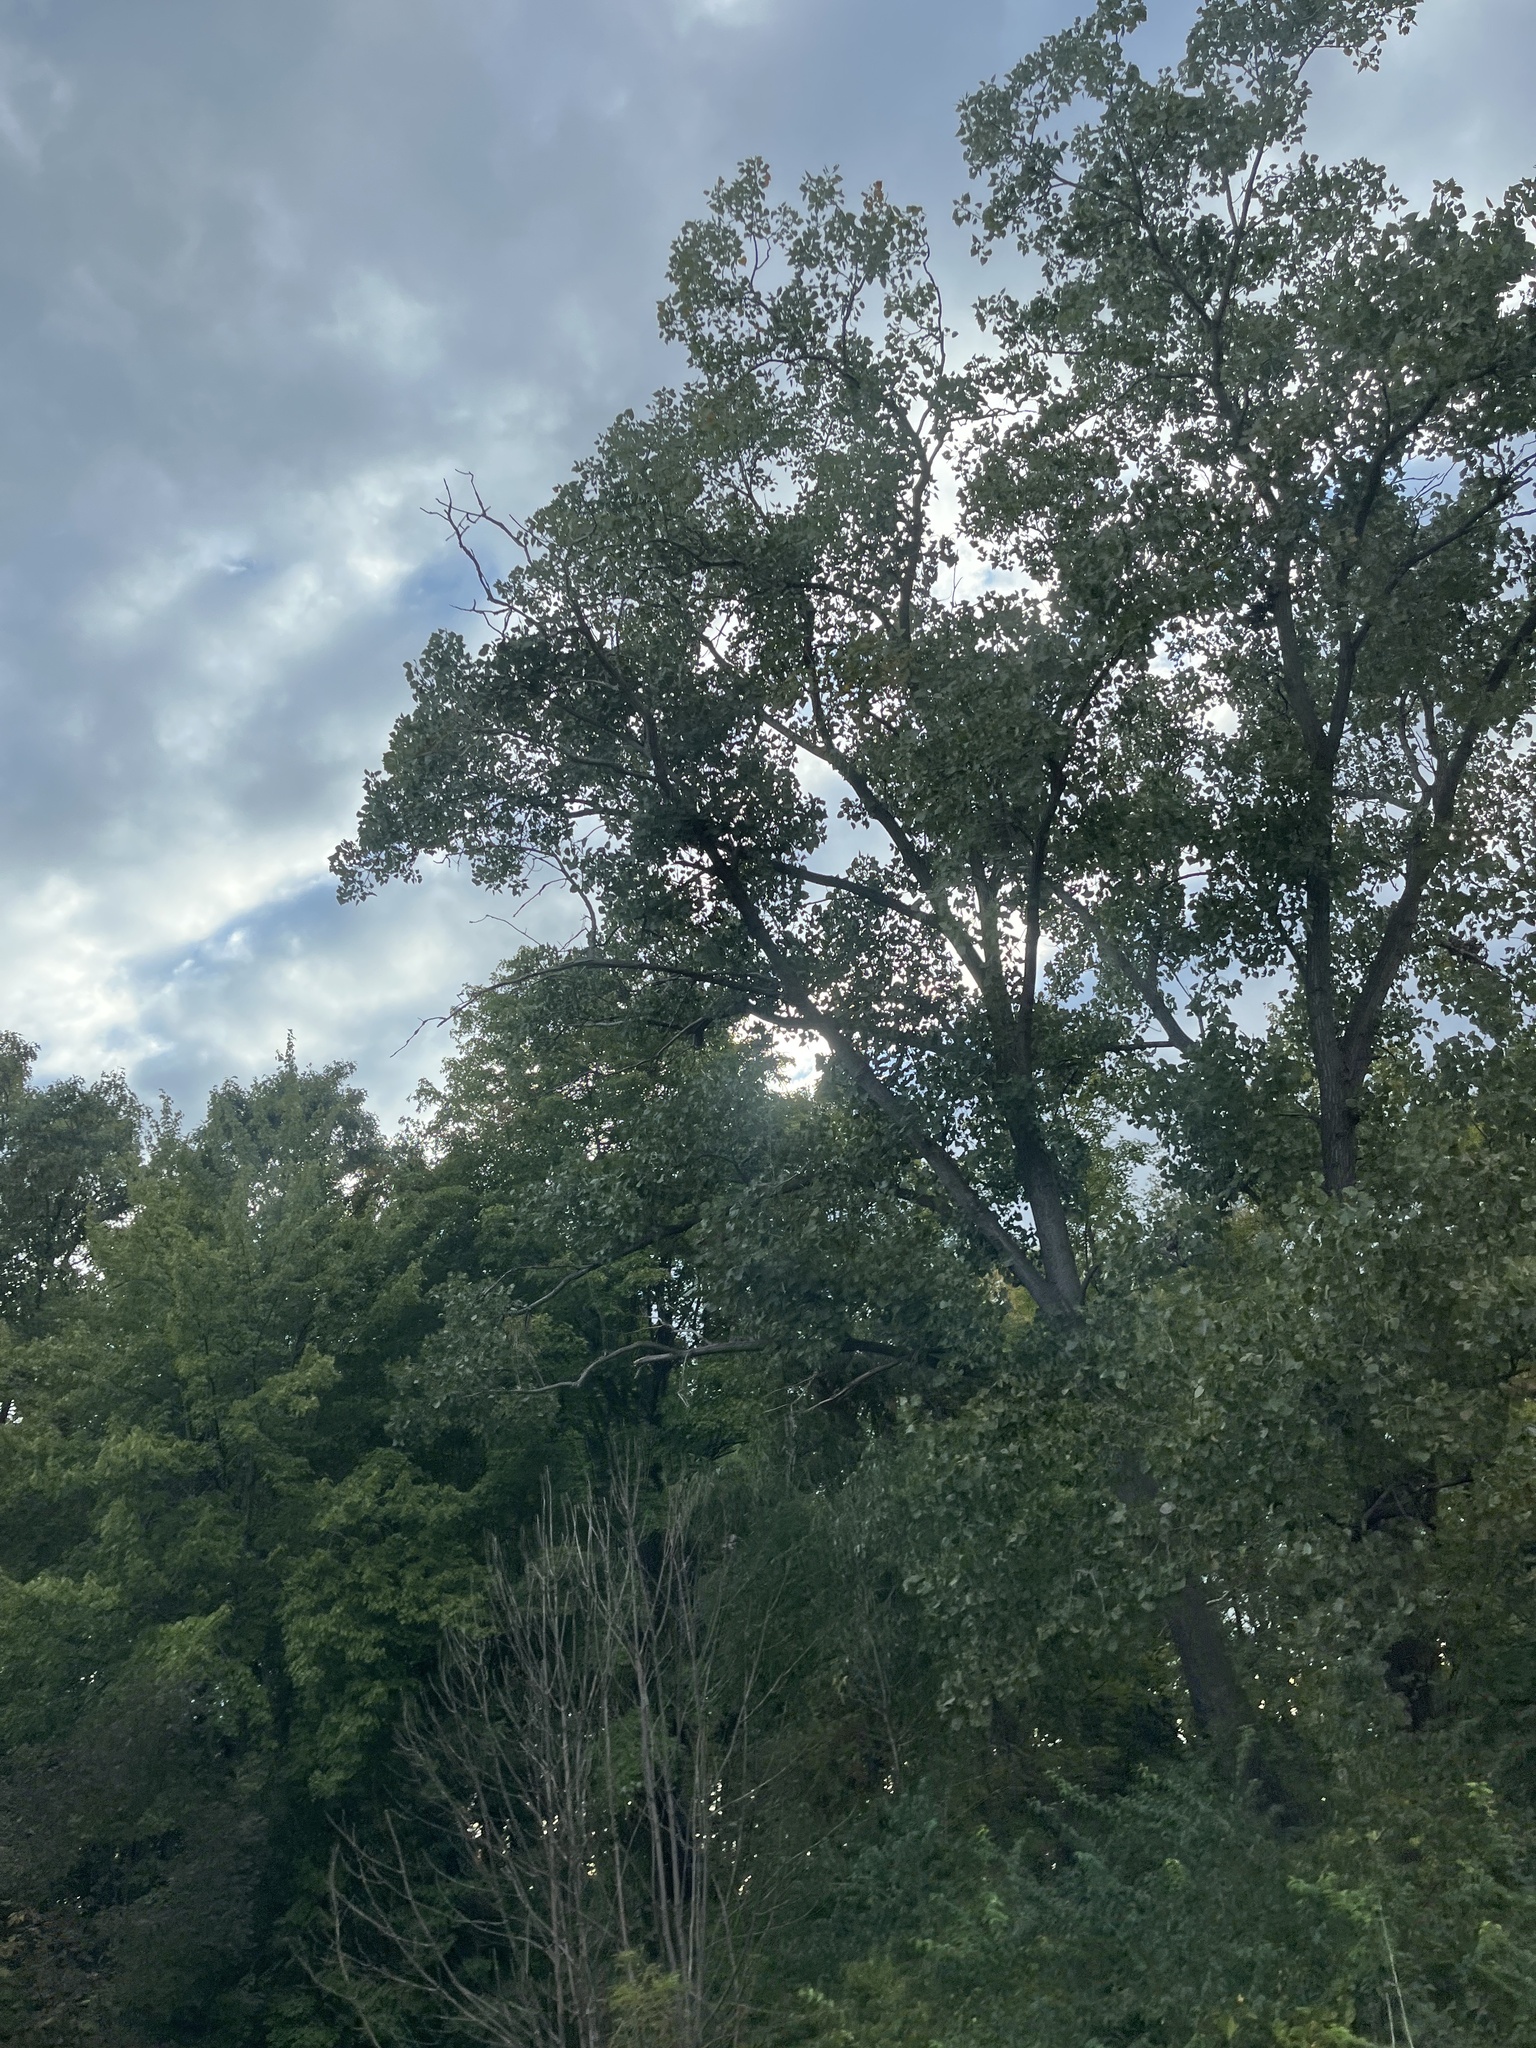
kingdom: Plantae
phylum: Tracheophyta
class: Magnoliopsida
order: Malpighiales
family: Salicaceae
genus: Populus
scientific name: Populus deltoides
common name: Eastern cottonwood
